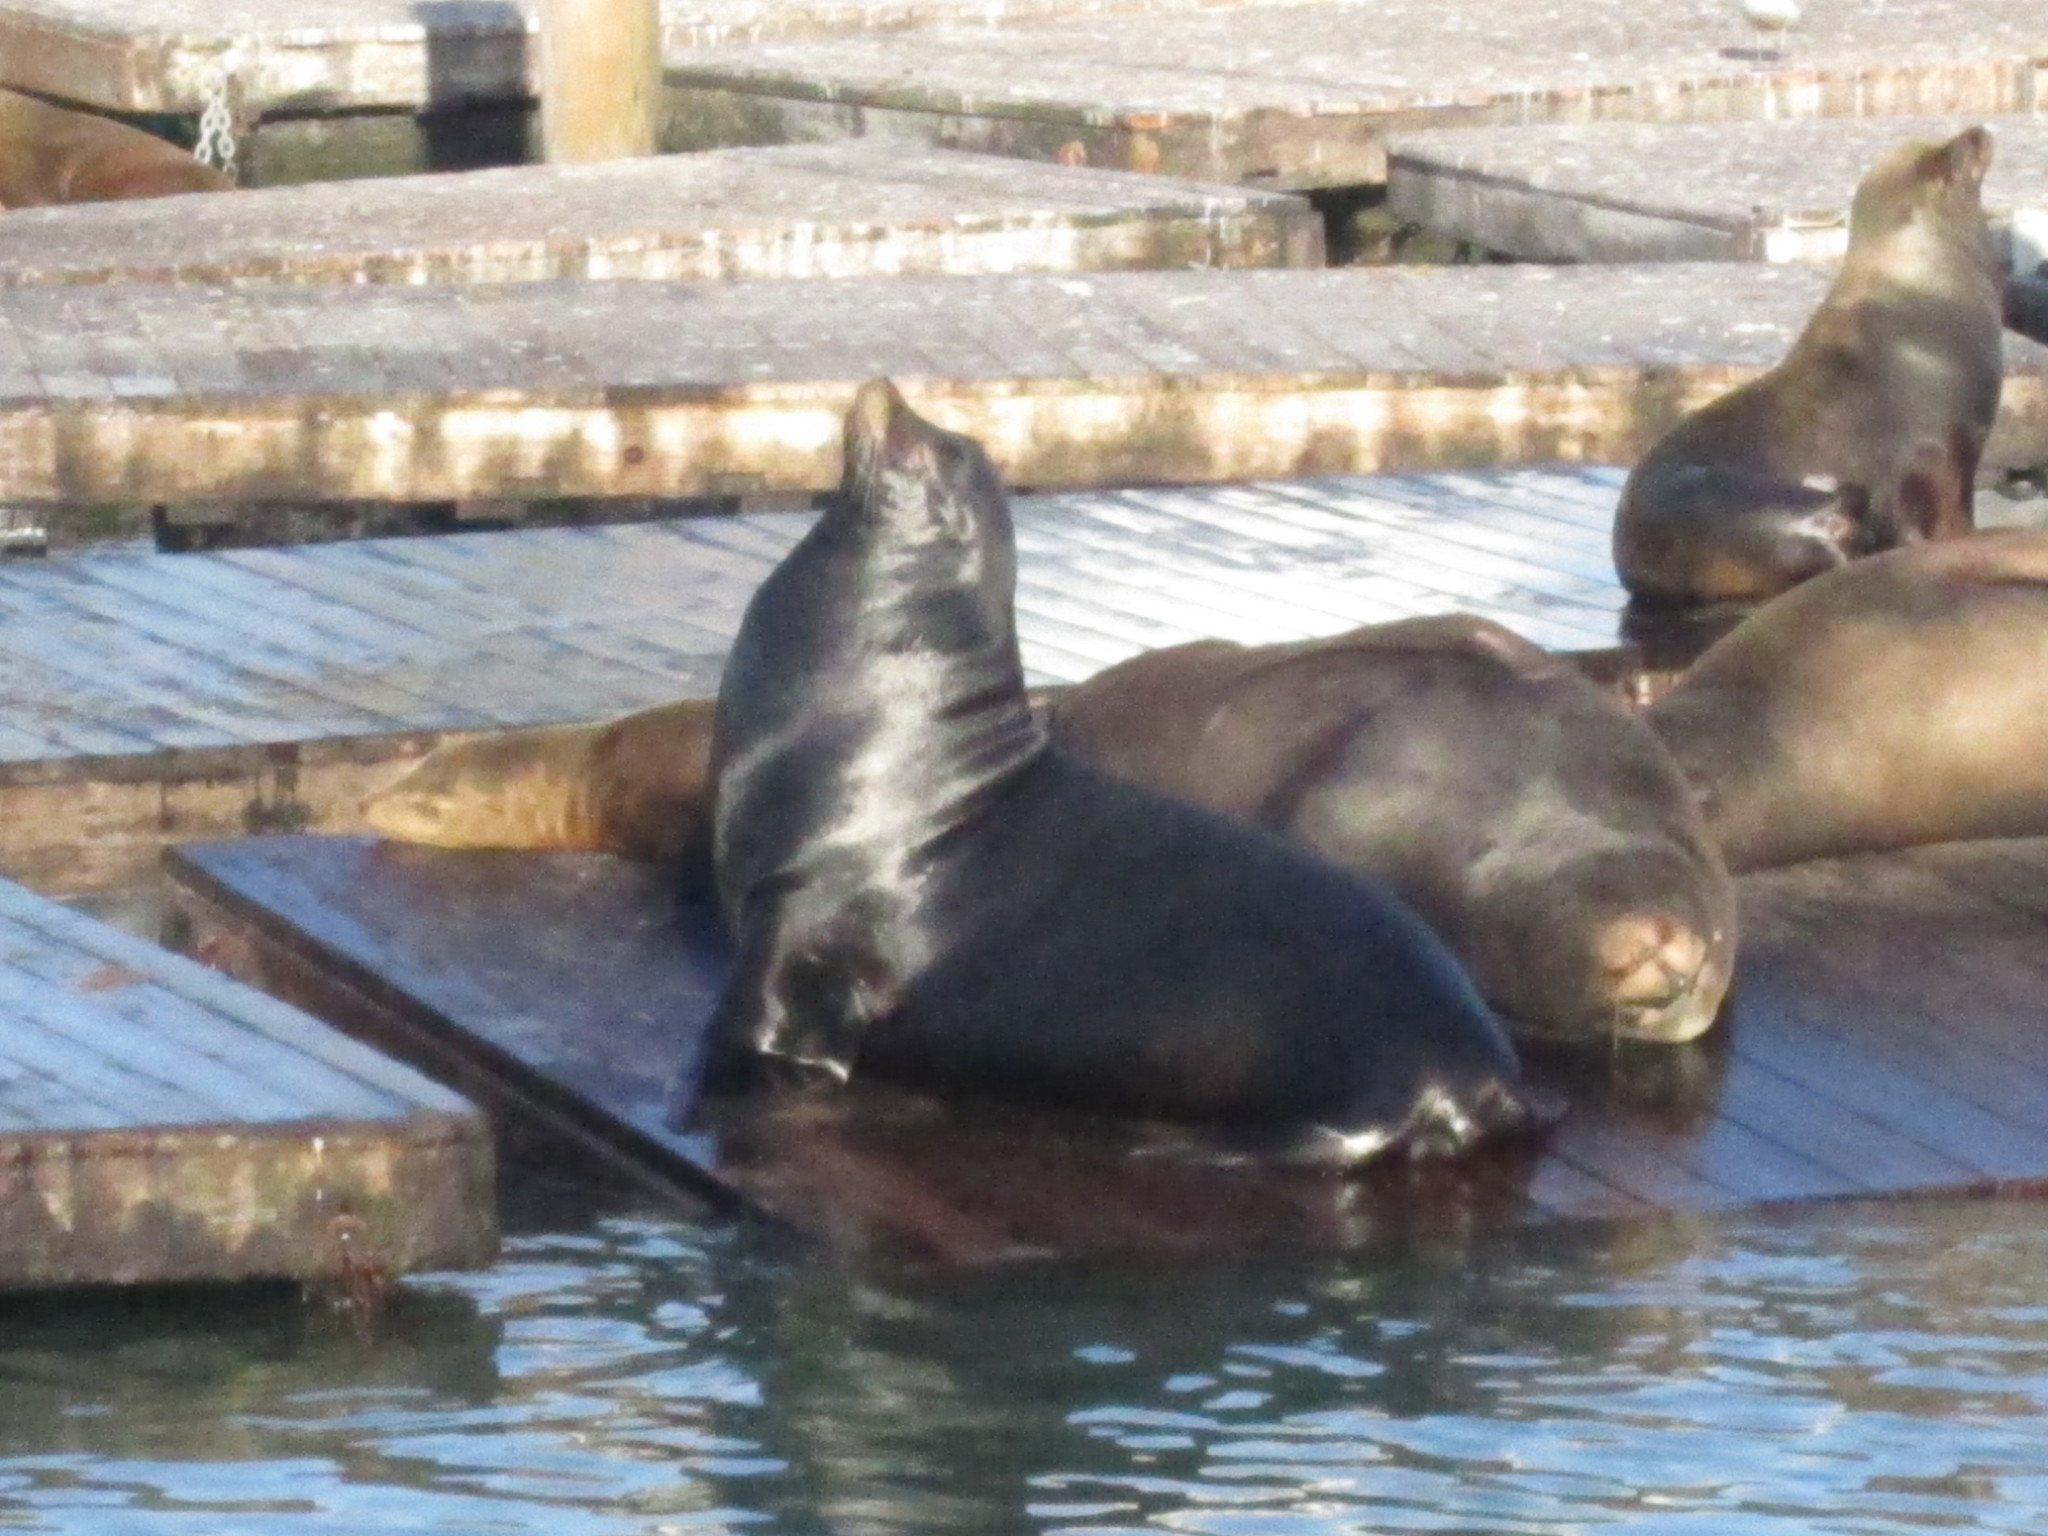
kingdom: Animalia
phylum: Chordata
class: Mammalia
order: Carnivora
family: Otariidae
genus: Zalophus
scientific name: Zalophus californianus
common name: California sea lion
